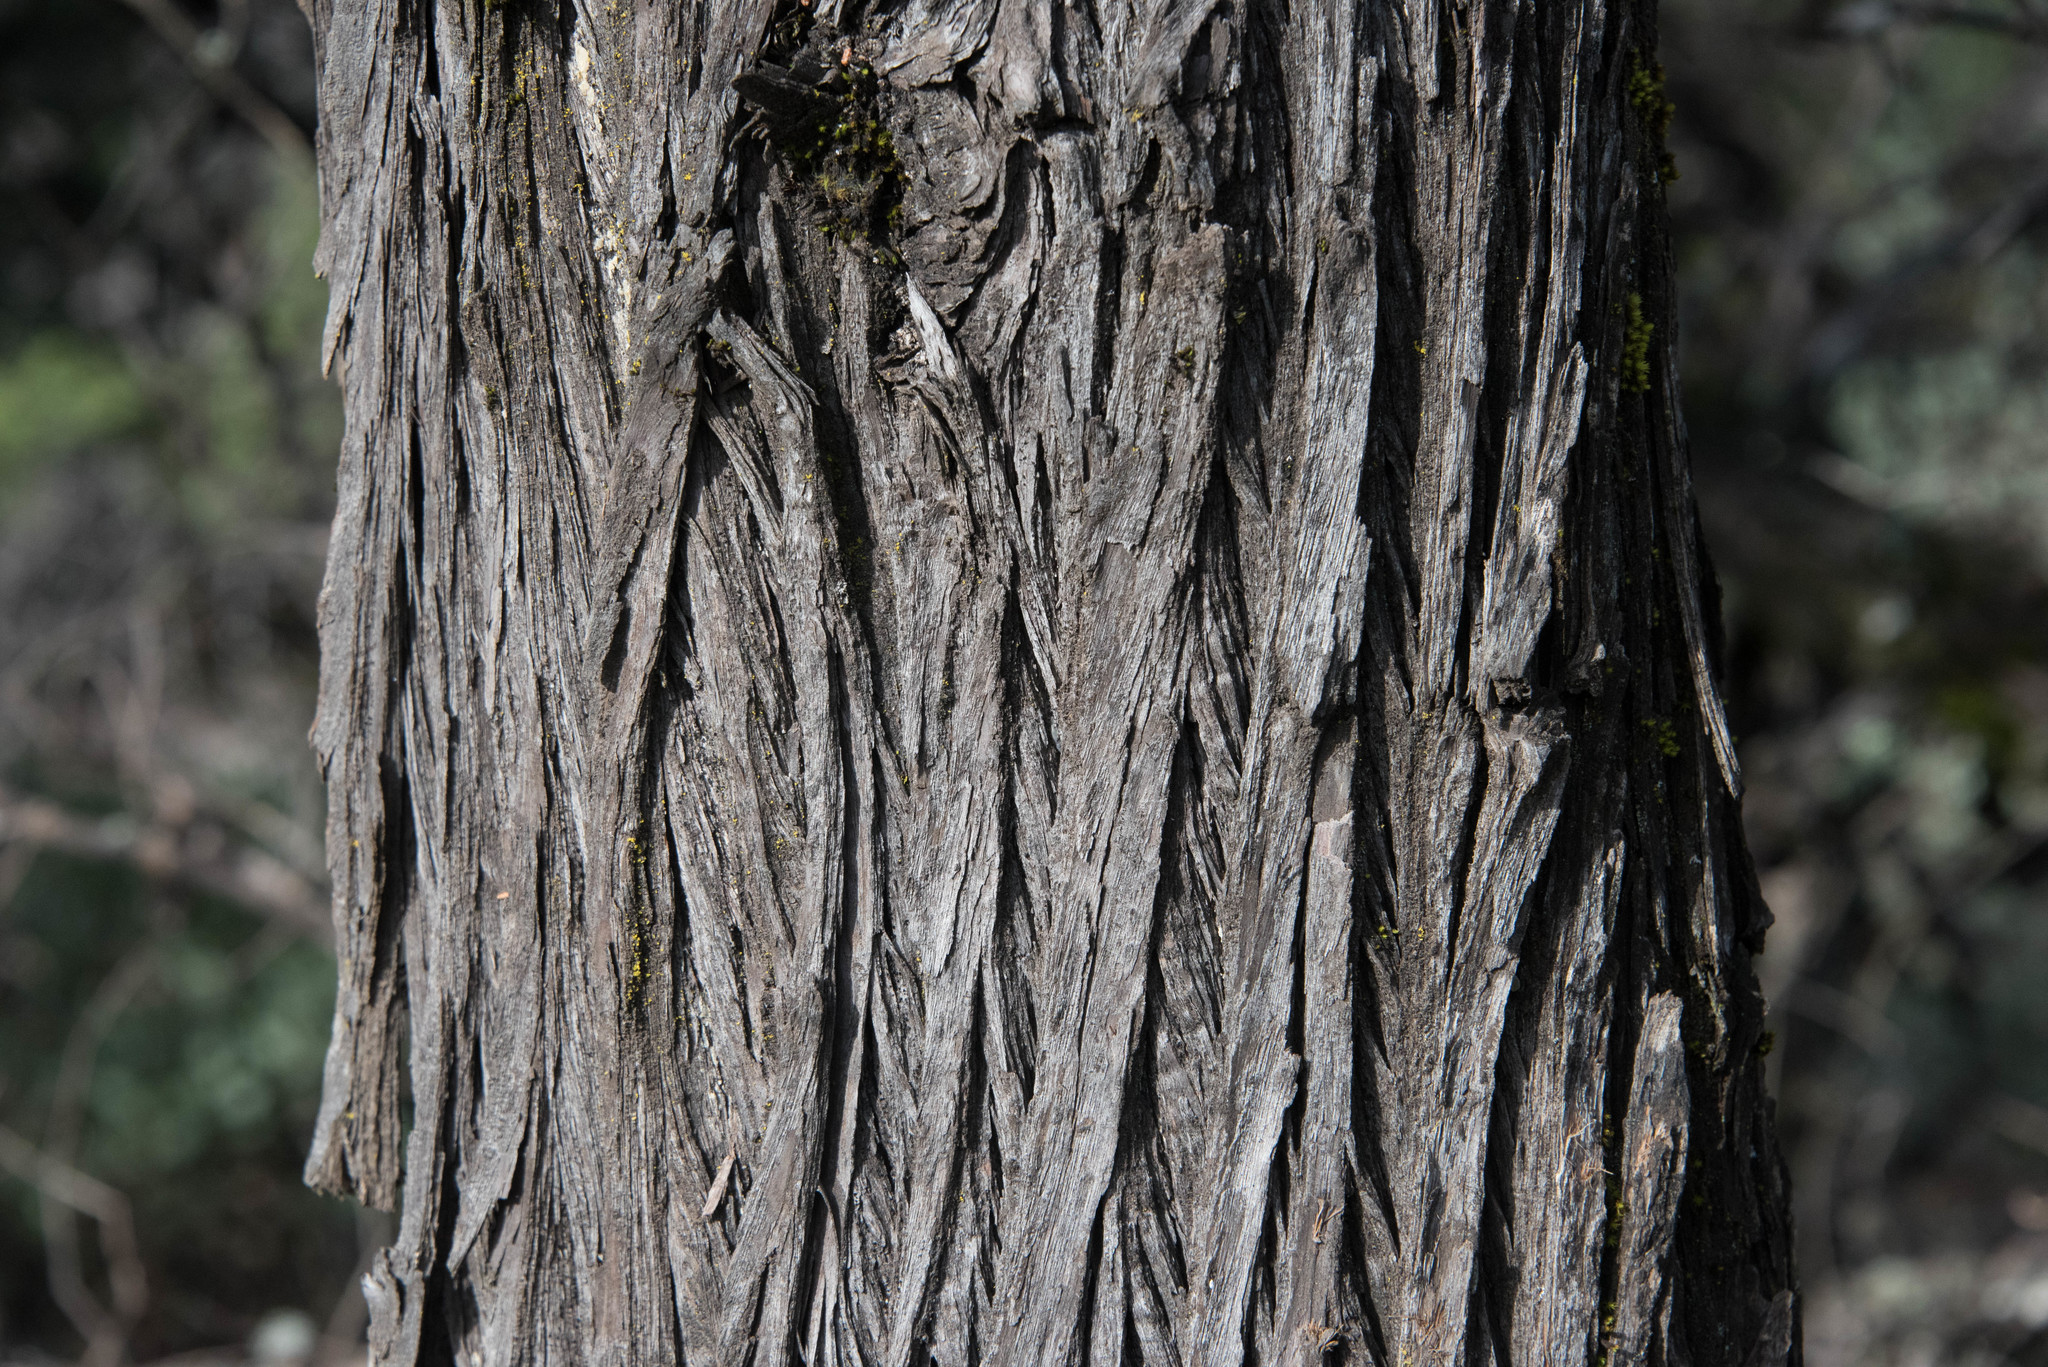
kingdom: Plantae
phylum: Tracheophyta
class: Pinopsida
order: Pinales
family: Cupressaceae
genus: Cupressus
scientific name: Cupressus sargentii
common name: Sargent cypress
